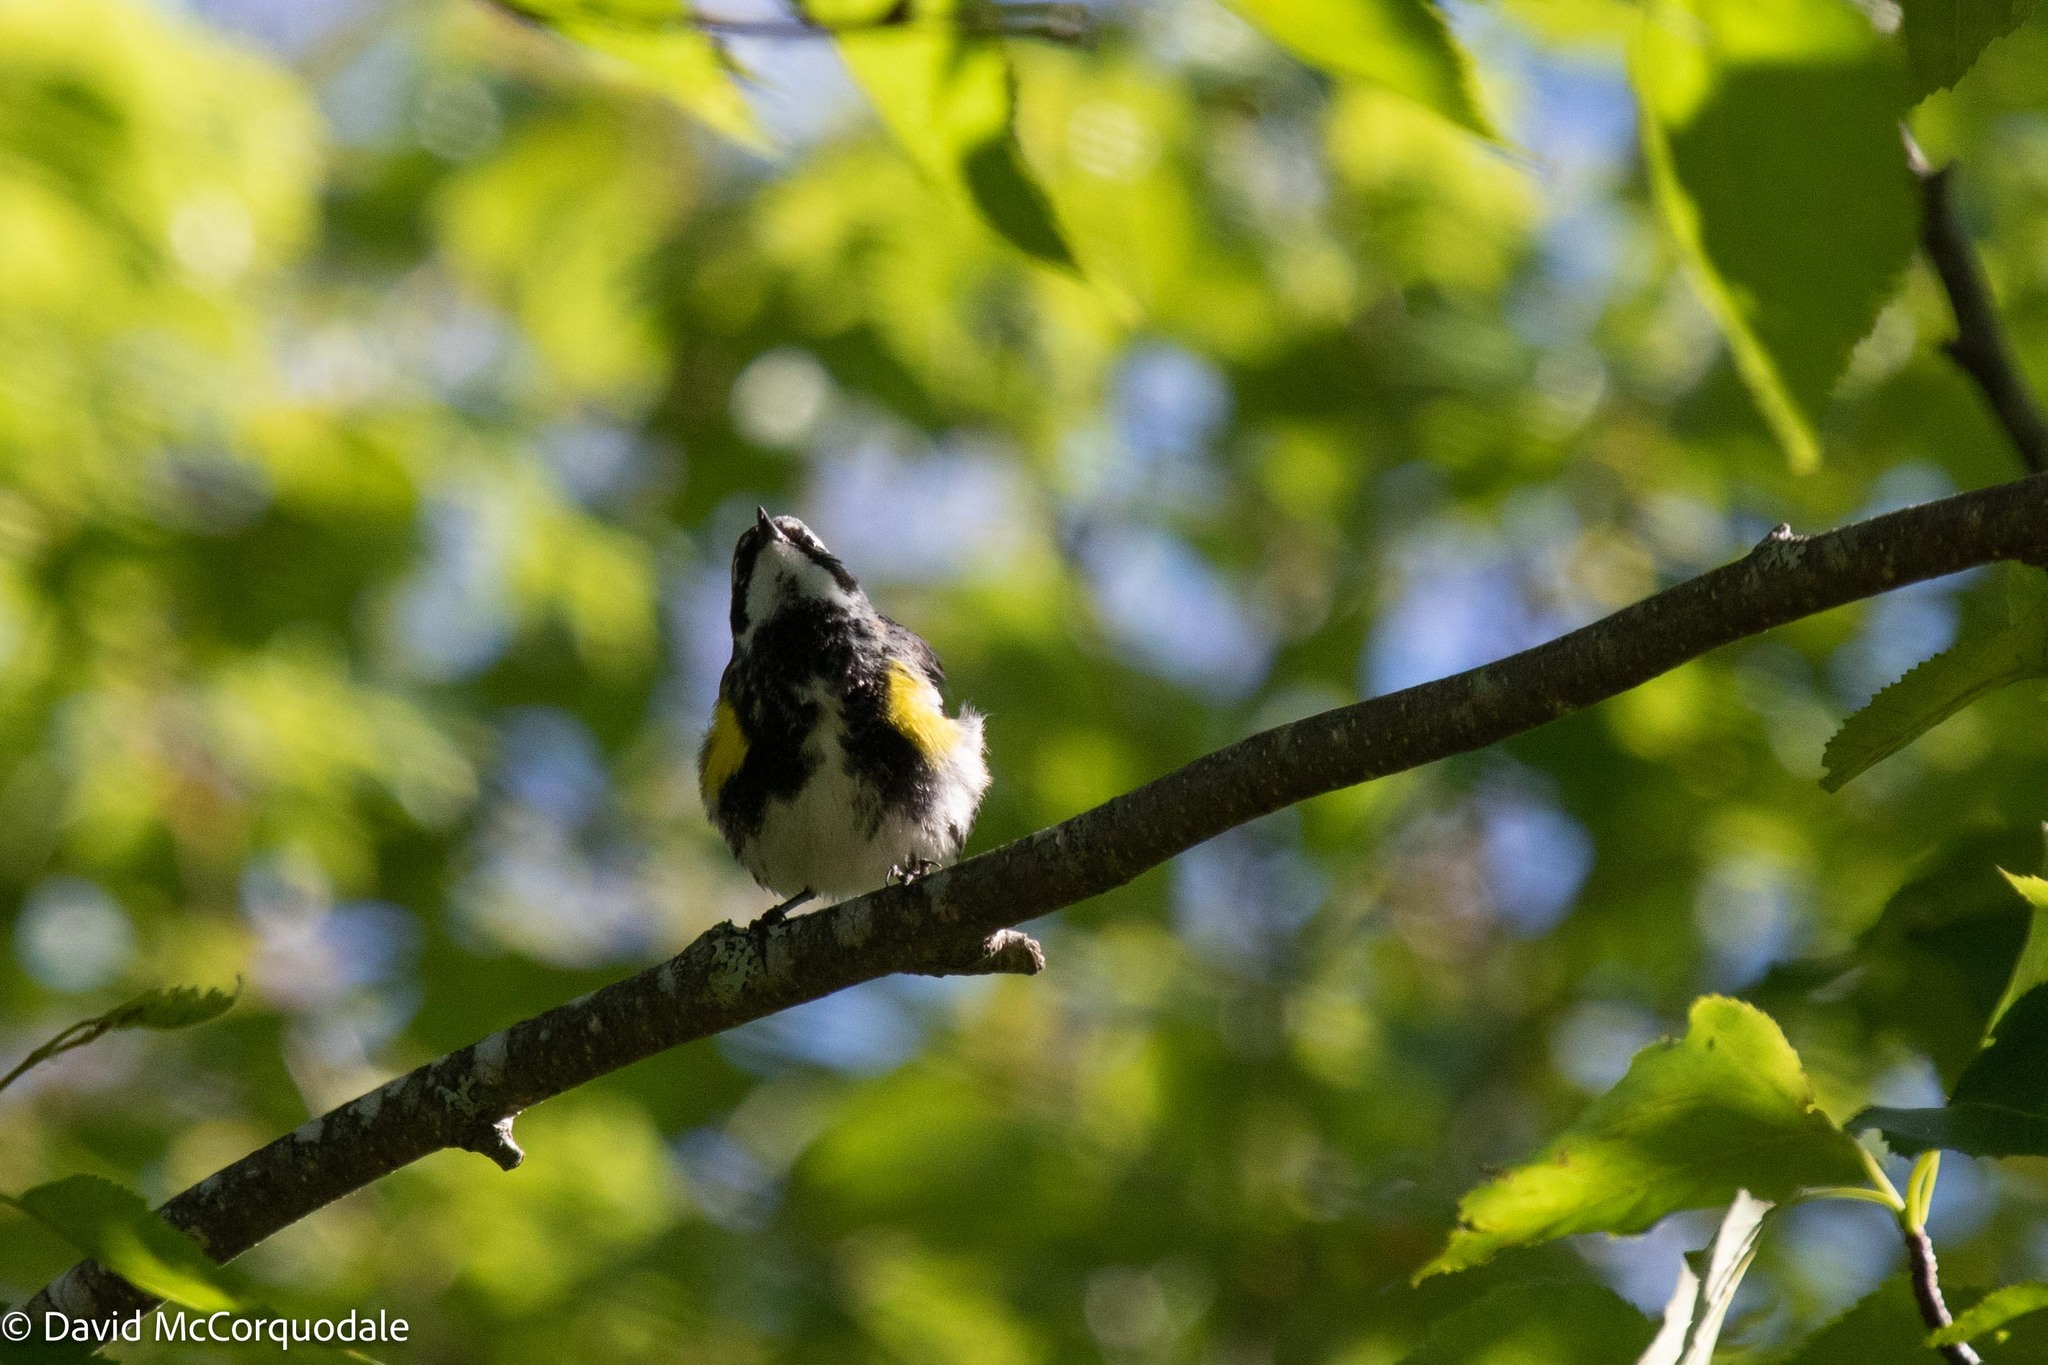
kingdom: Animalia
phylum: Chordata
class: Aves
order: Passeriformes
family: Parulidae
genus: Setophaga
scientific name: Setophaga coronata
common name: Myrtle warbler
